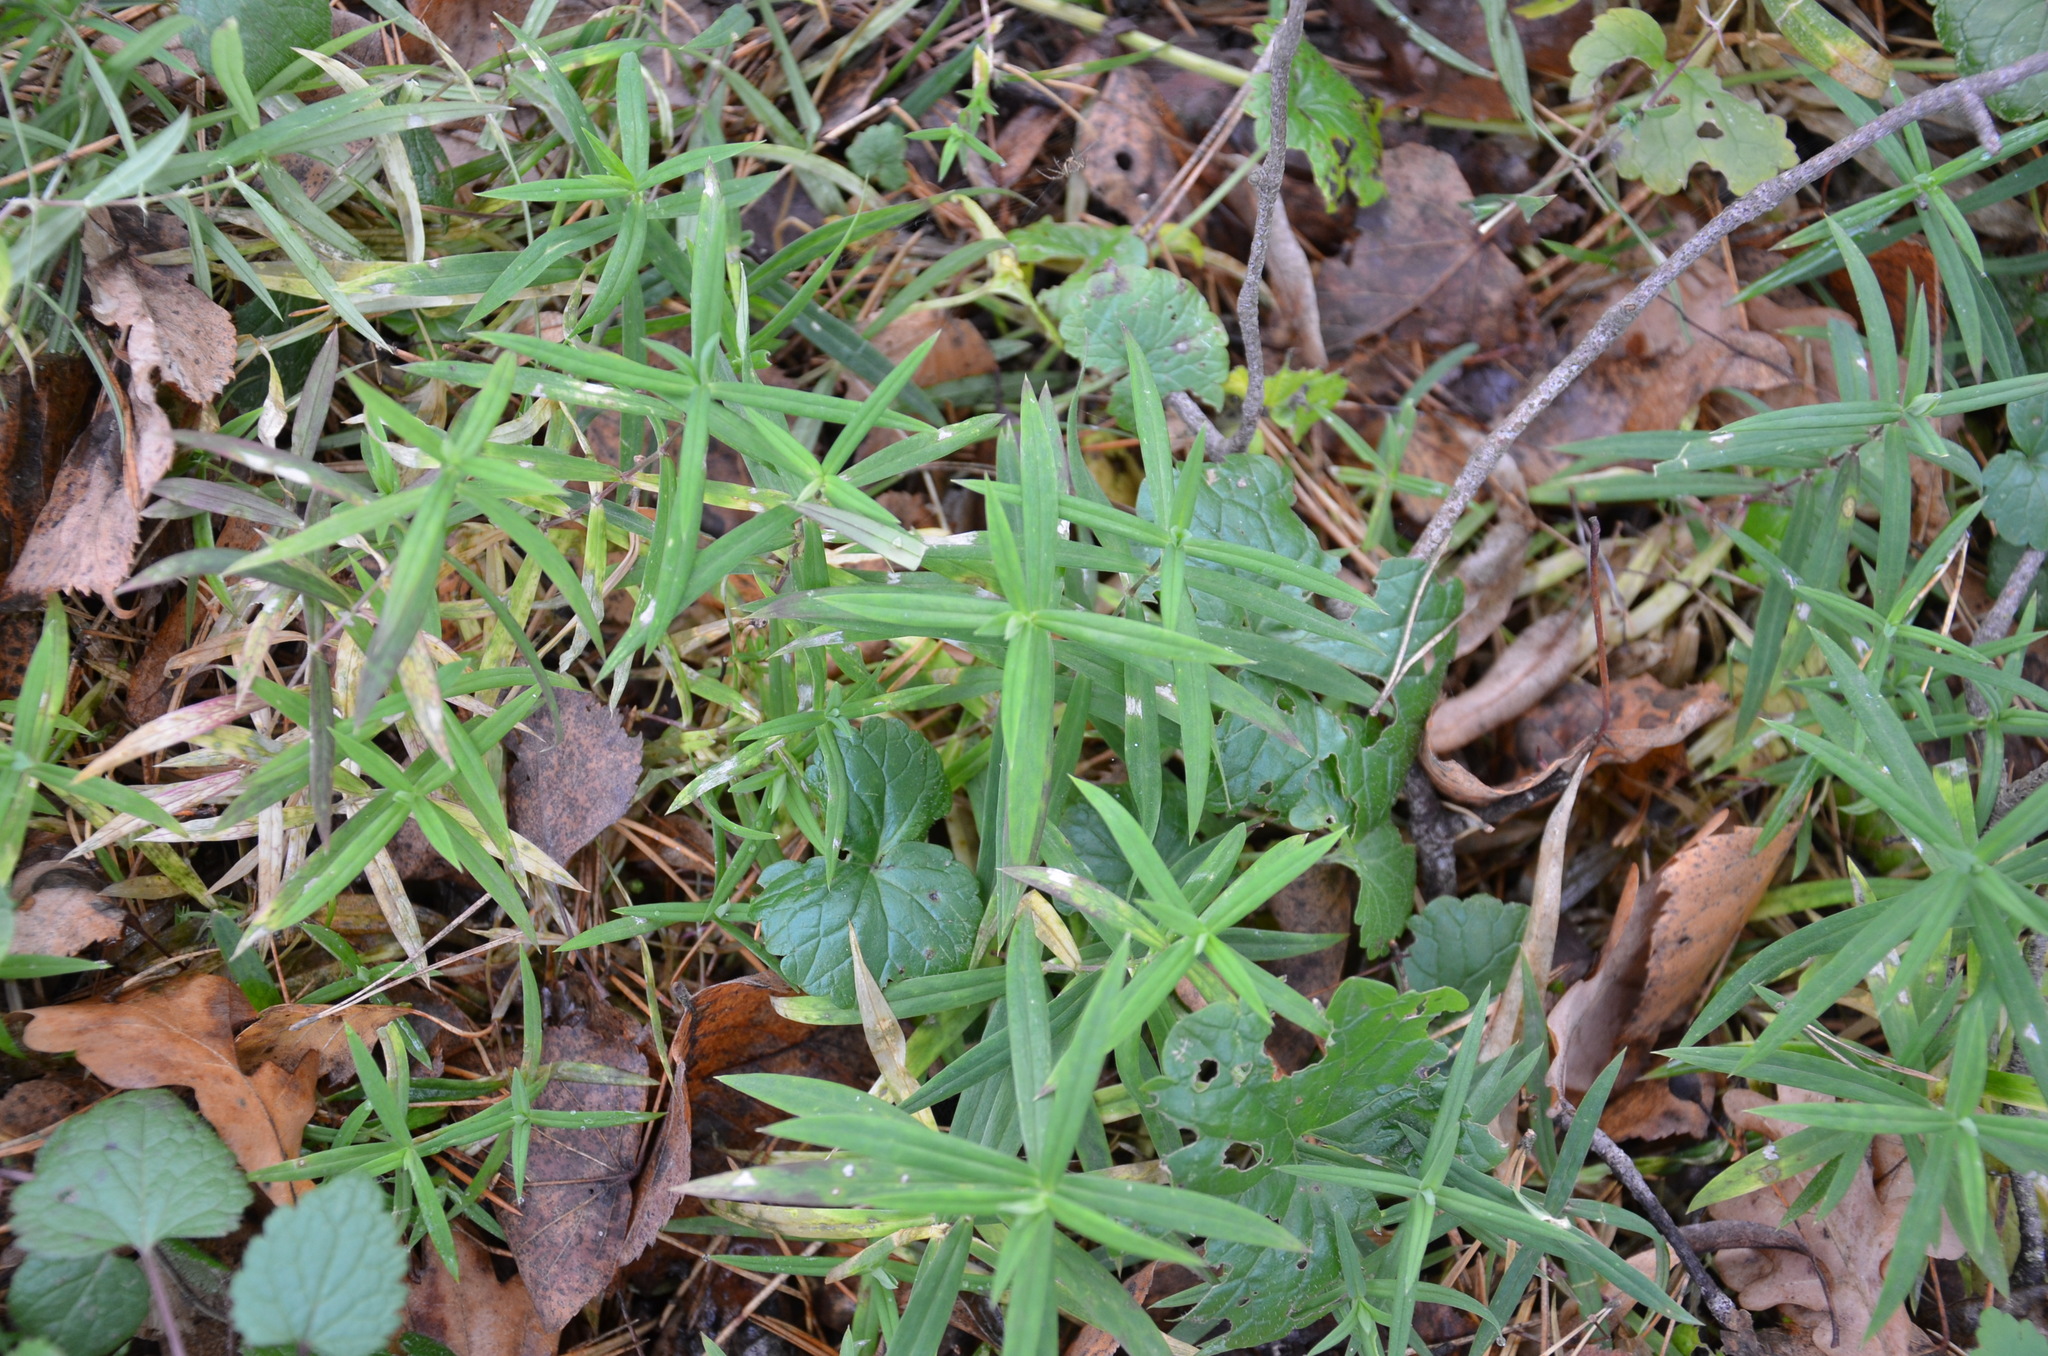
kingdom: Plantae
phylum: Tracheophyta
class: Magnoliopsida
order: Caryophyllales
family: Caryophyllaceae
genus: Rabelera
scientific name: Rabelera holostea
